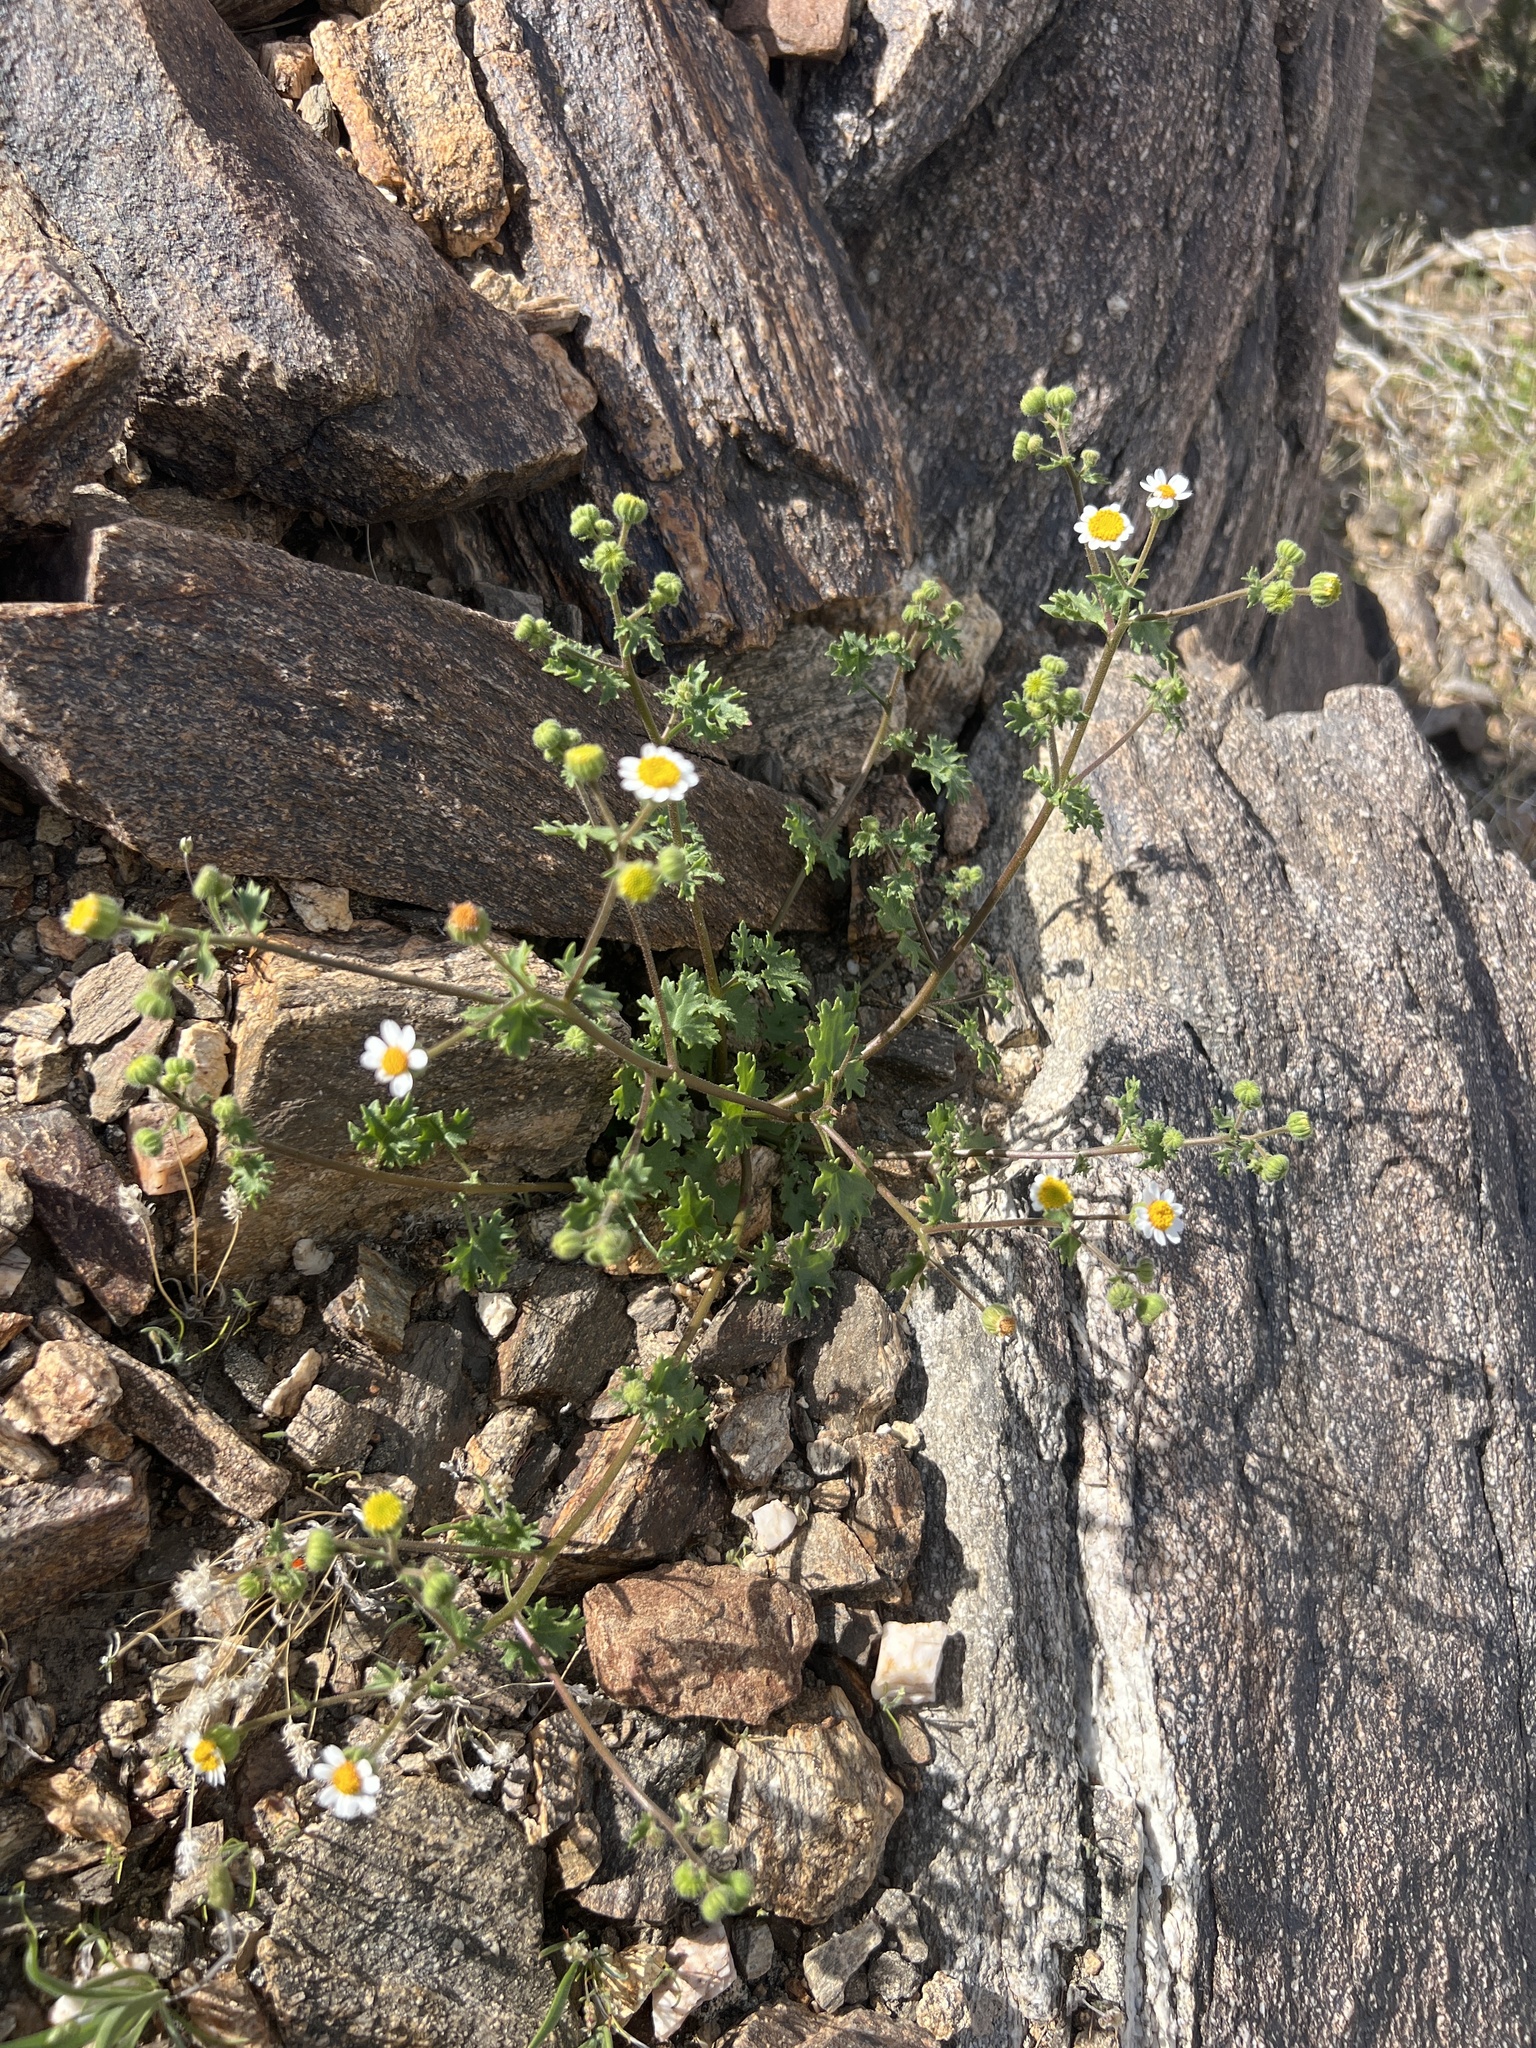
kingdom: Plantae
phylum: Tracheophyta
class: Magnoliopsida
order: Asterales
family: Asteraceae
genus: Laphamia
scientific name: Laphamia emoryi
